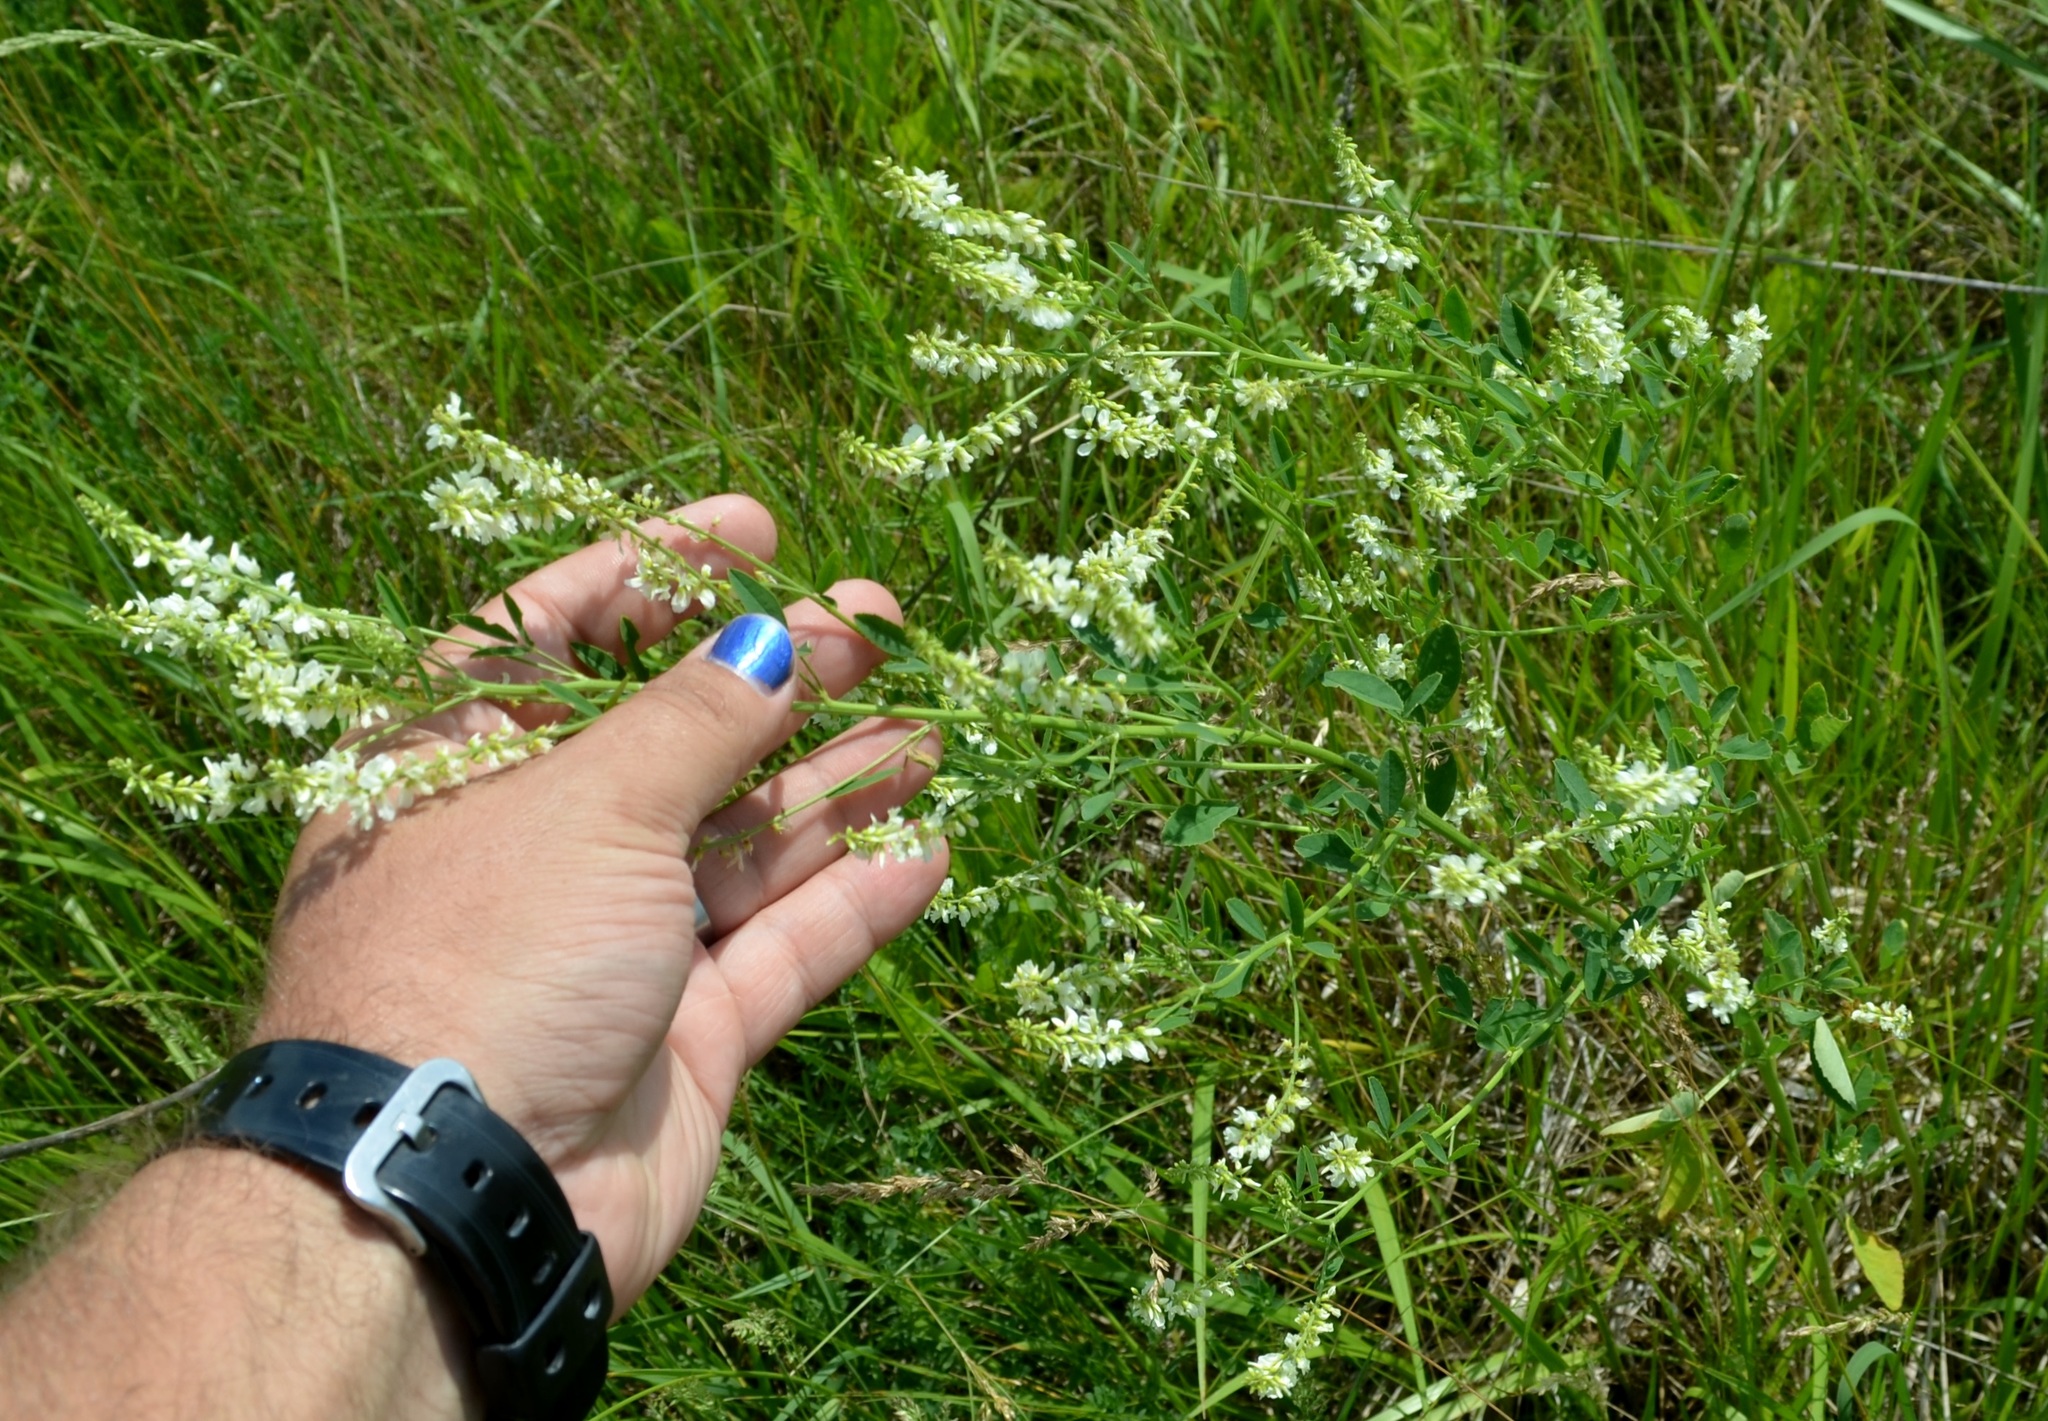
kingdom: Plantae
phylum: Tracheophyta
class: Magnoliopsida
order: Fabales
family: Fabaceae
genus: Melilotus
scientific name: Melilotus albus
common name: White melilot
